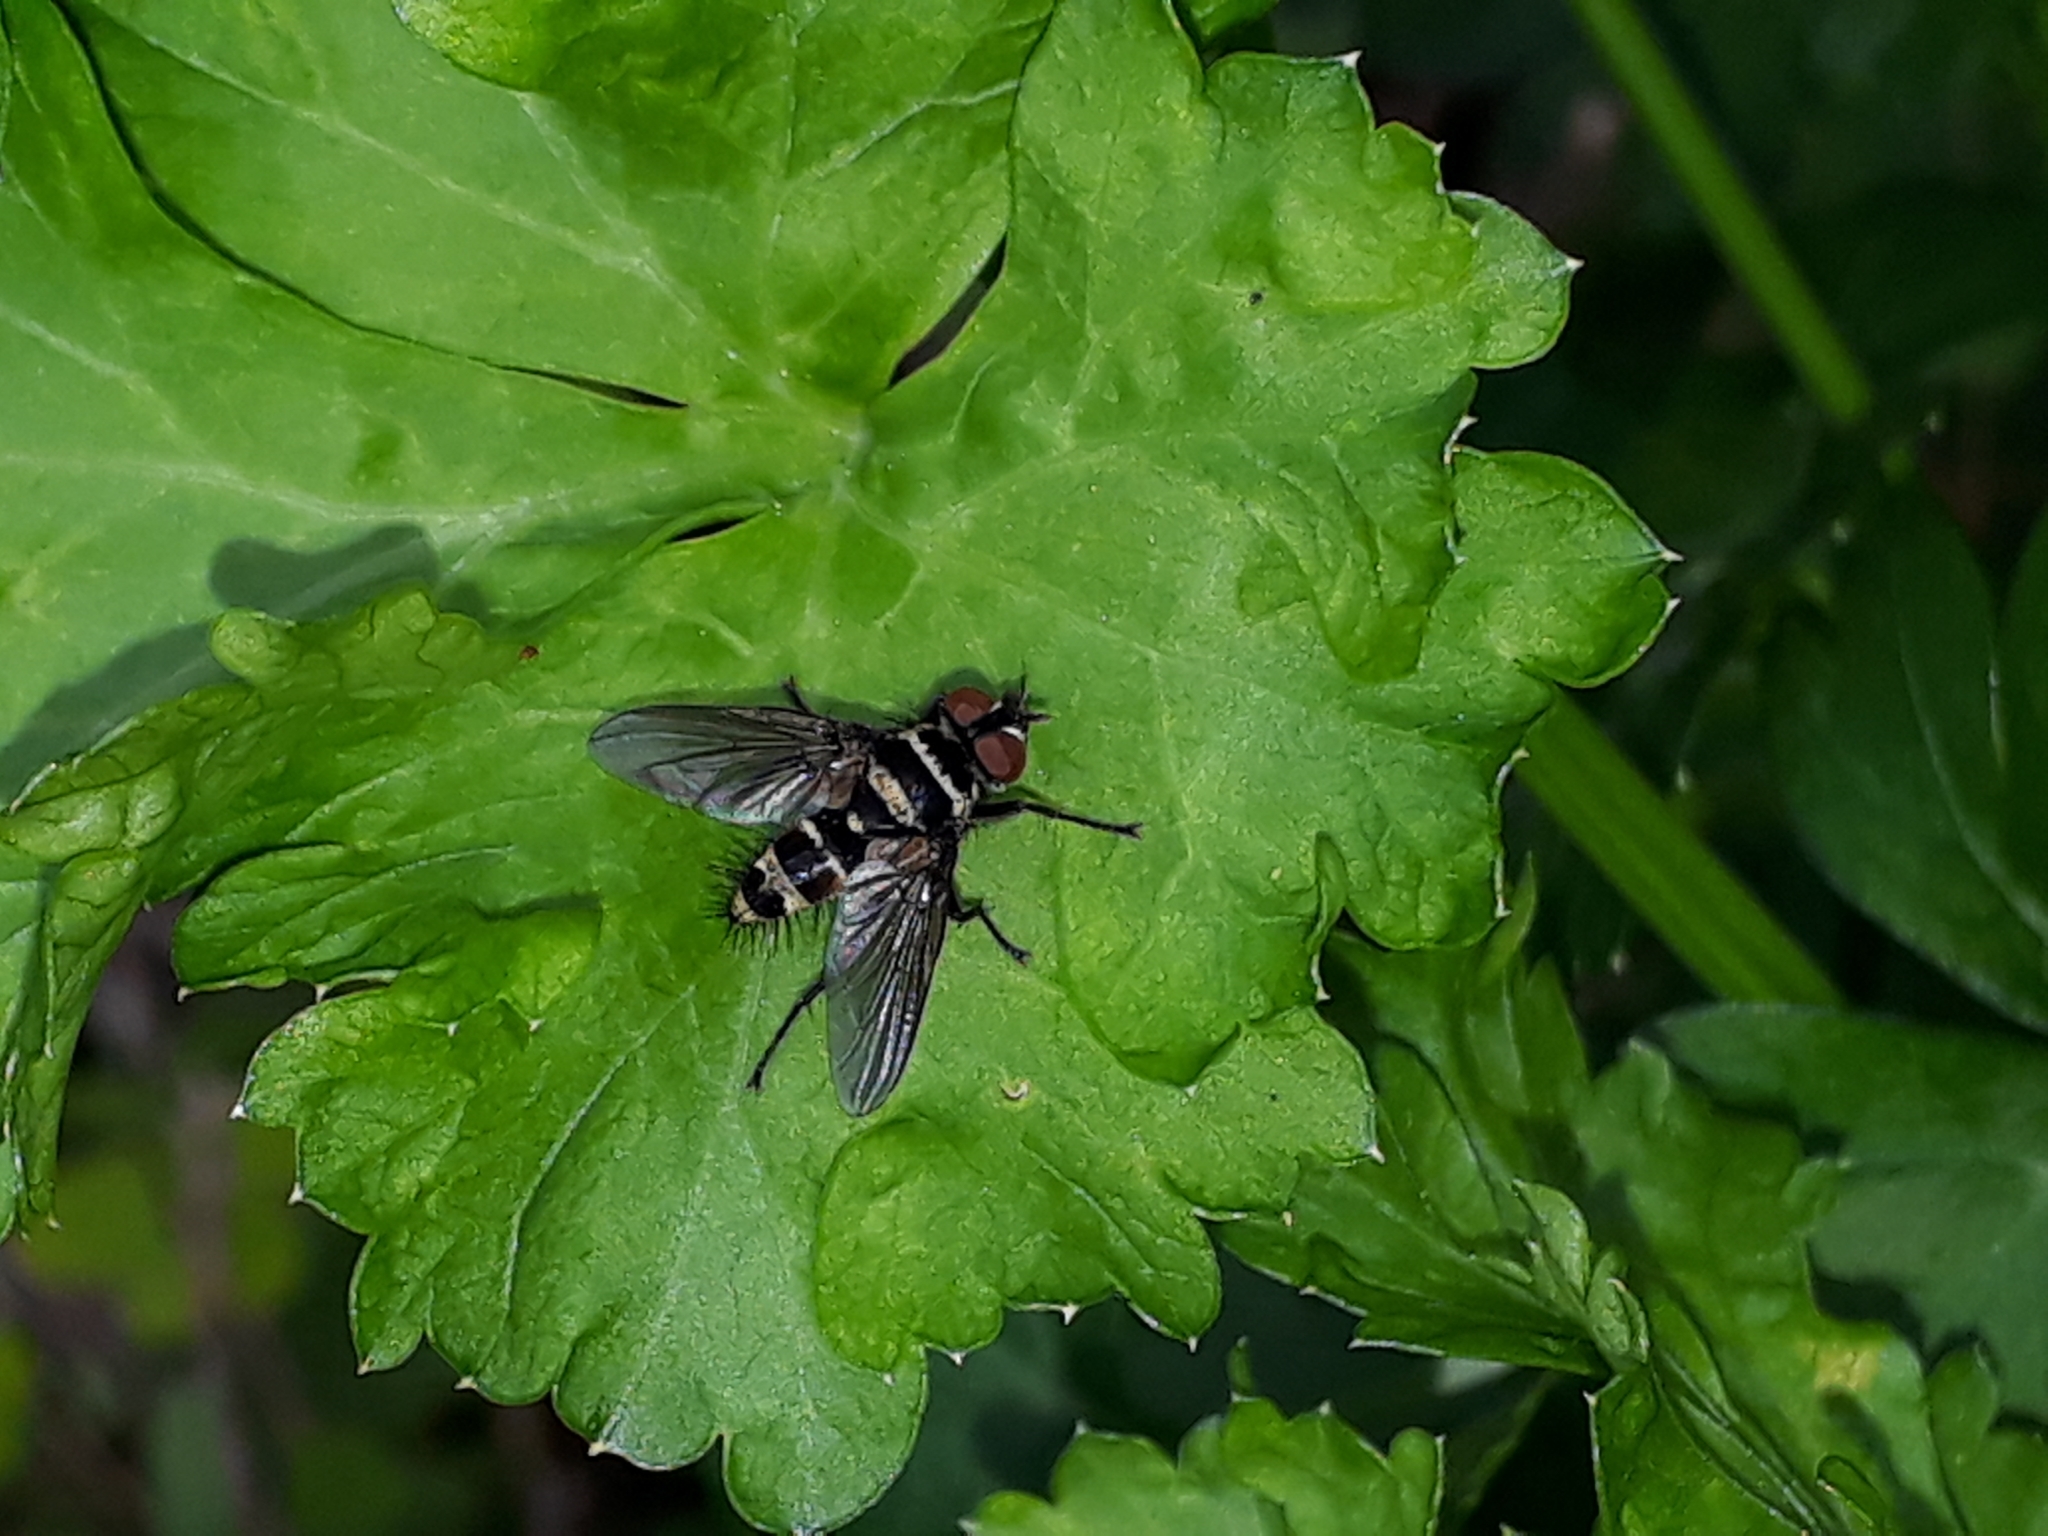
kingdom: Animalia
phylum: Arthropoda
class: Insecta
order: Diptera
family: Tachinidae
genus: Trigonospila
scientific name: Trigonospila brevifacies
